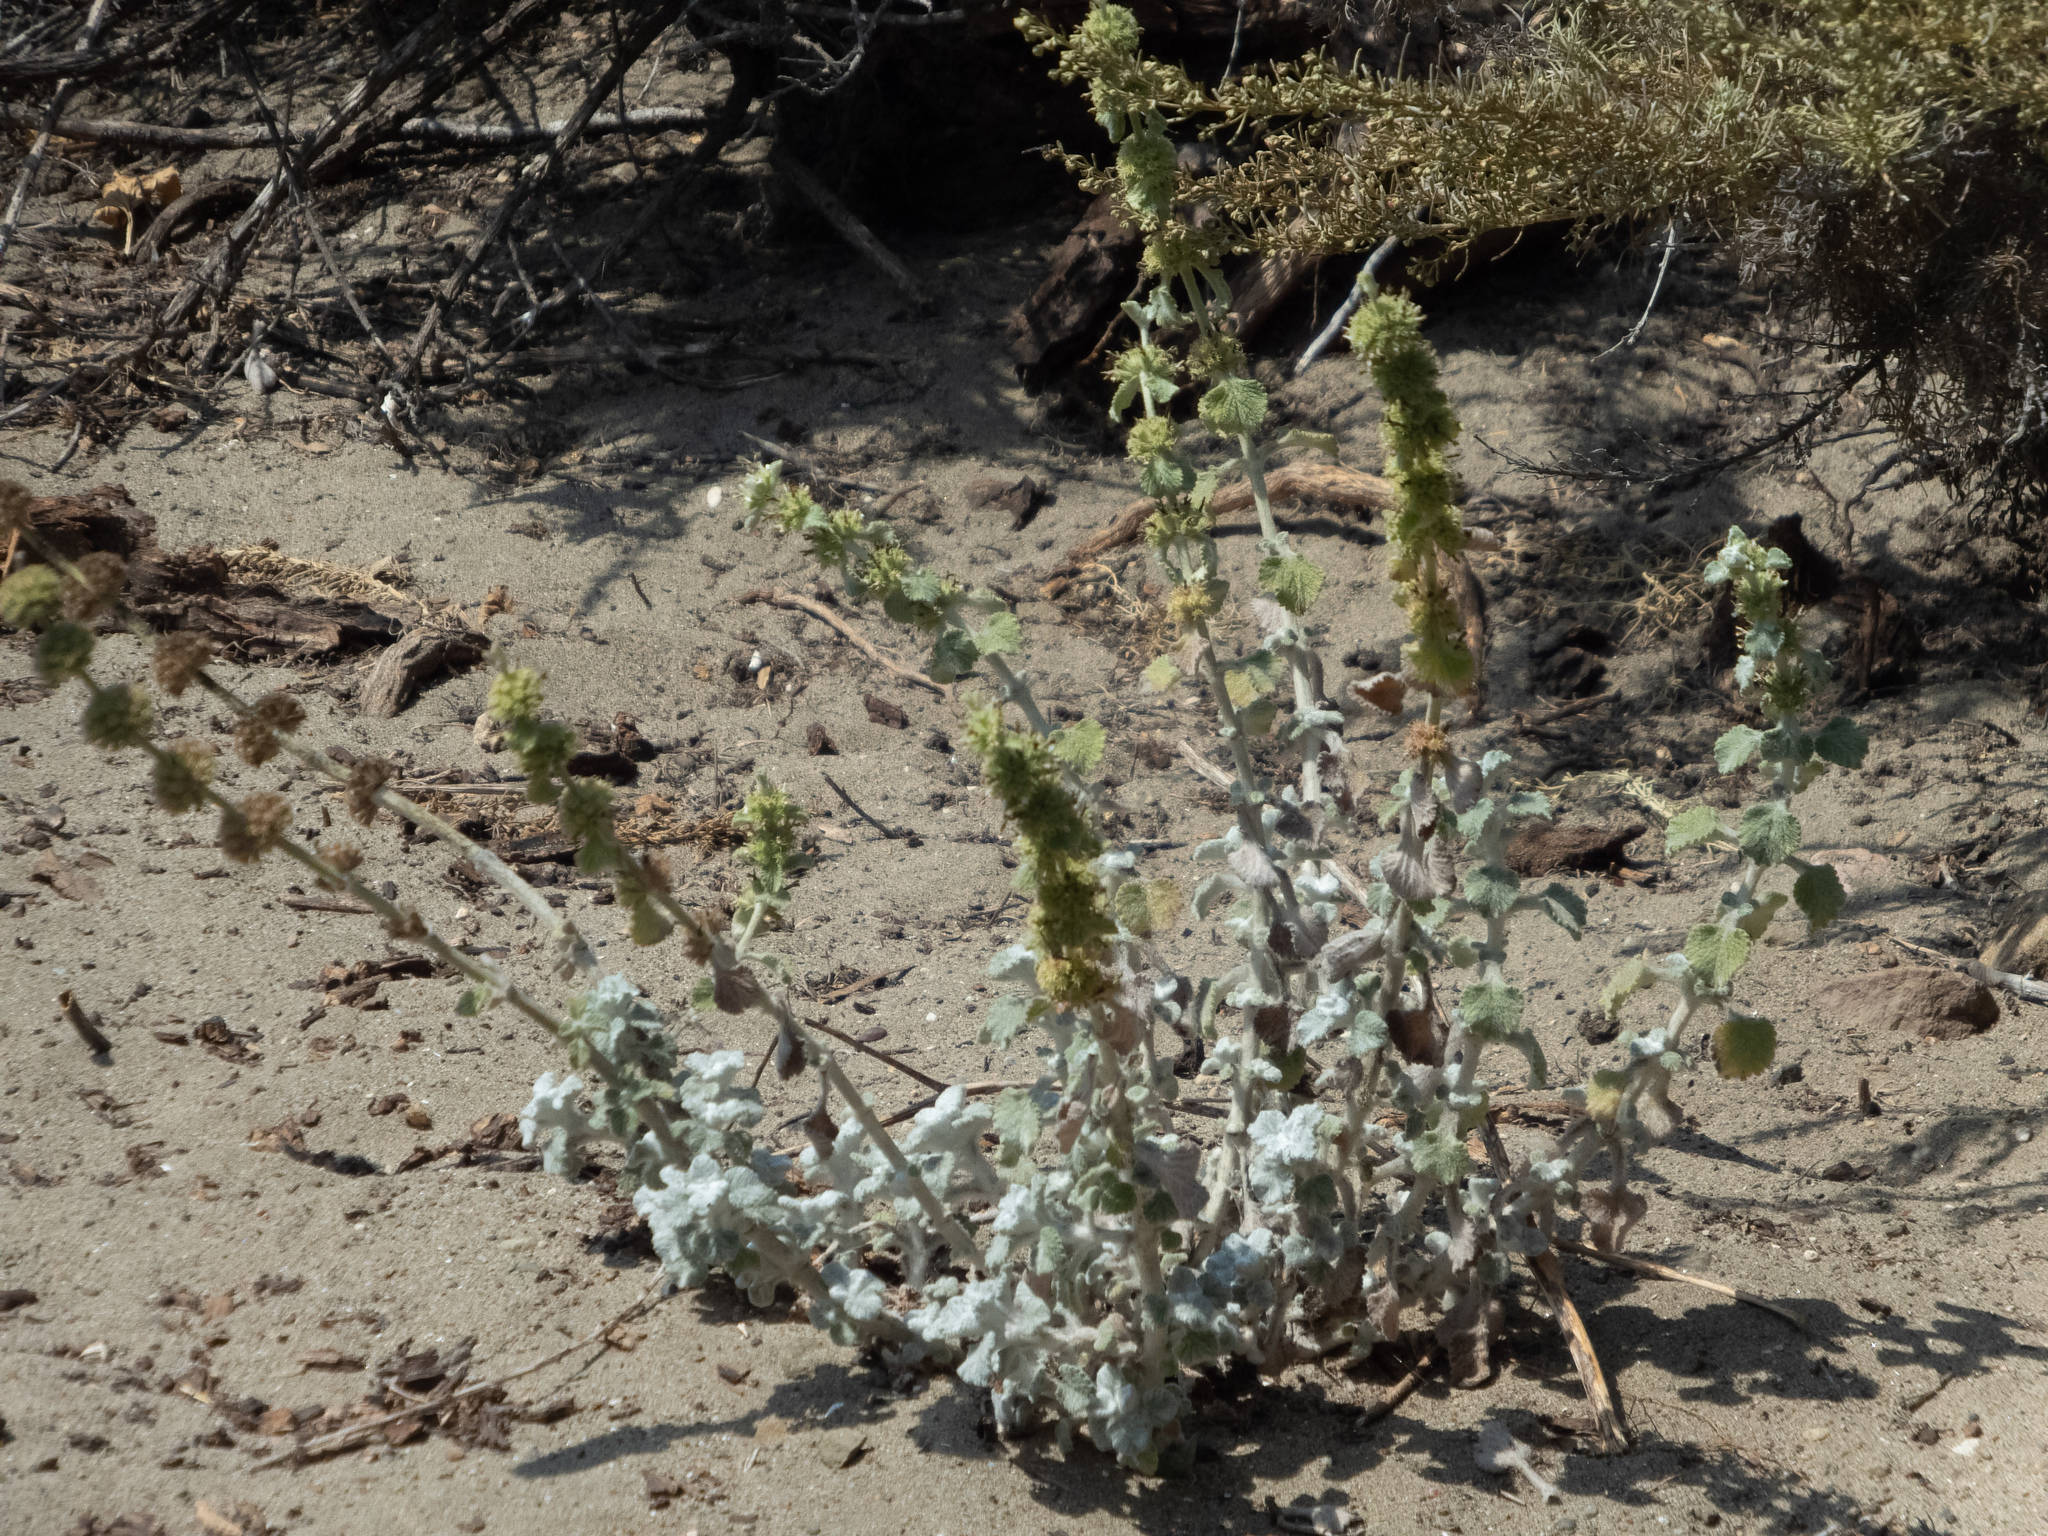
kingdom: Plantae
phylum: Tracheophyta
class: Magnoliopsida
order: Lamiales
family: Lamiaceae
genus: Marrubium
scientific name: Marrubium vulgare
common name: Horehound
